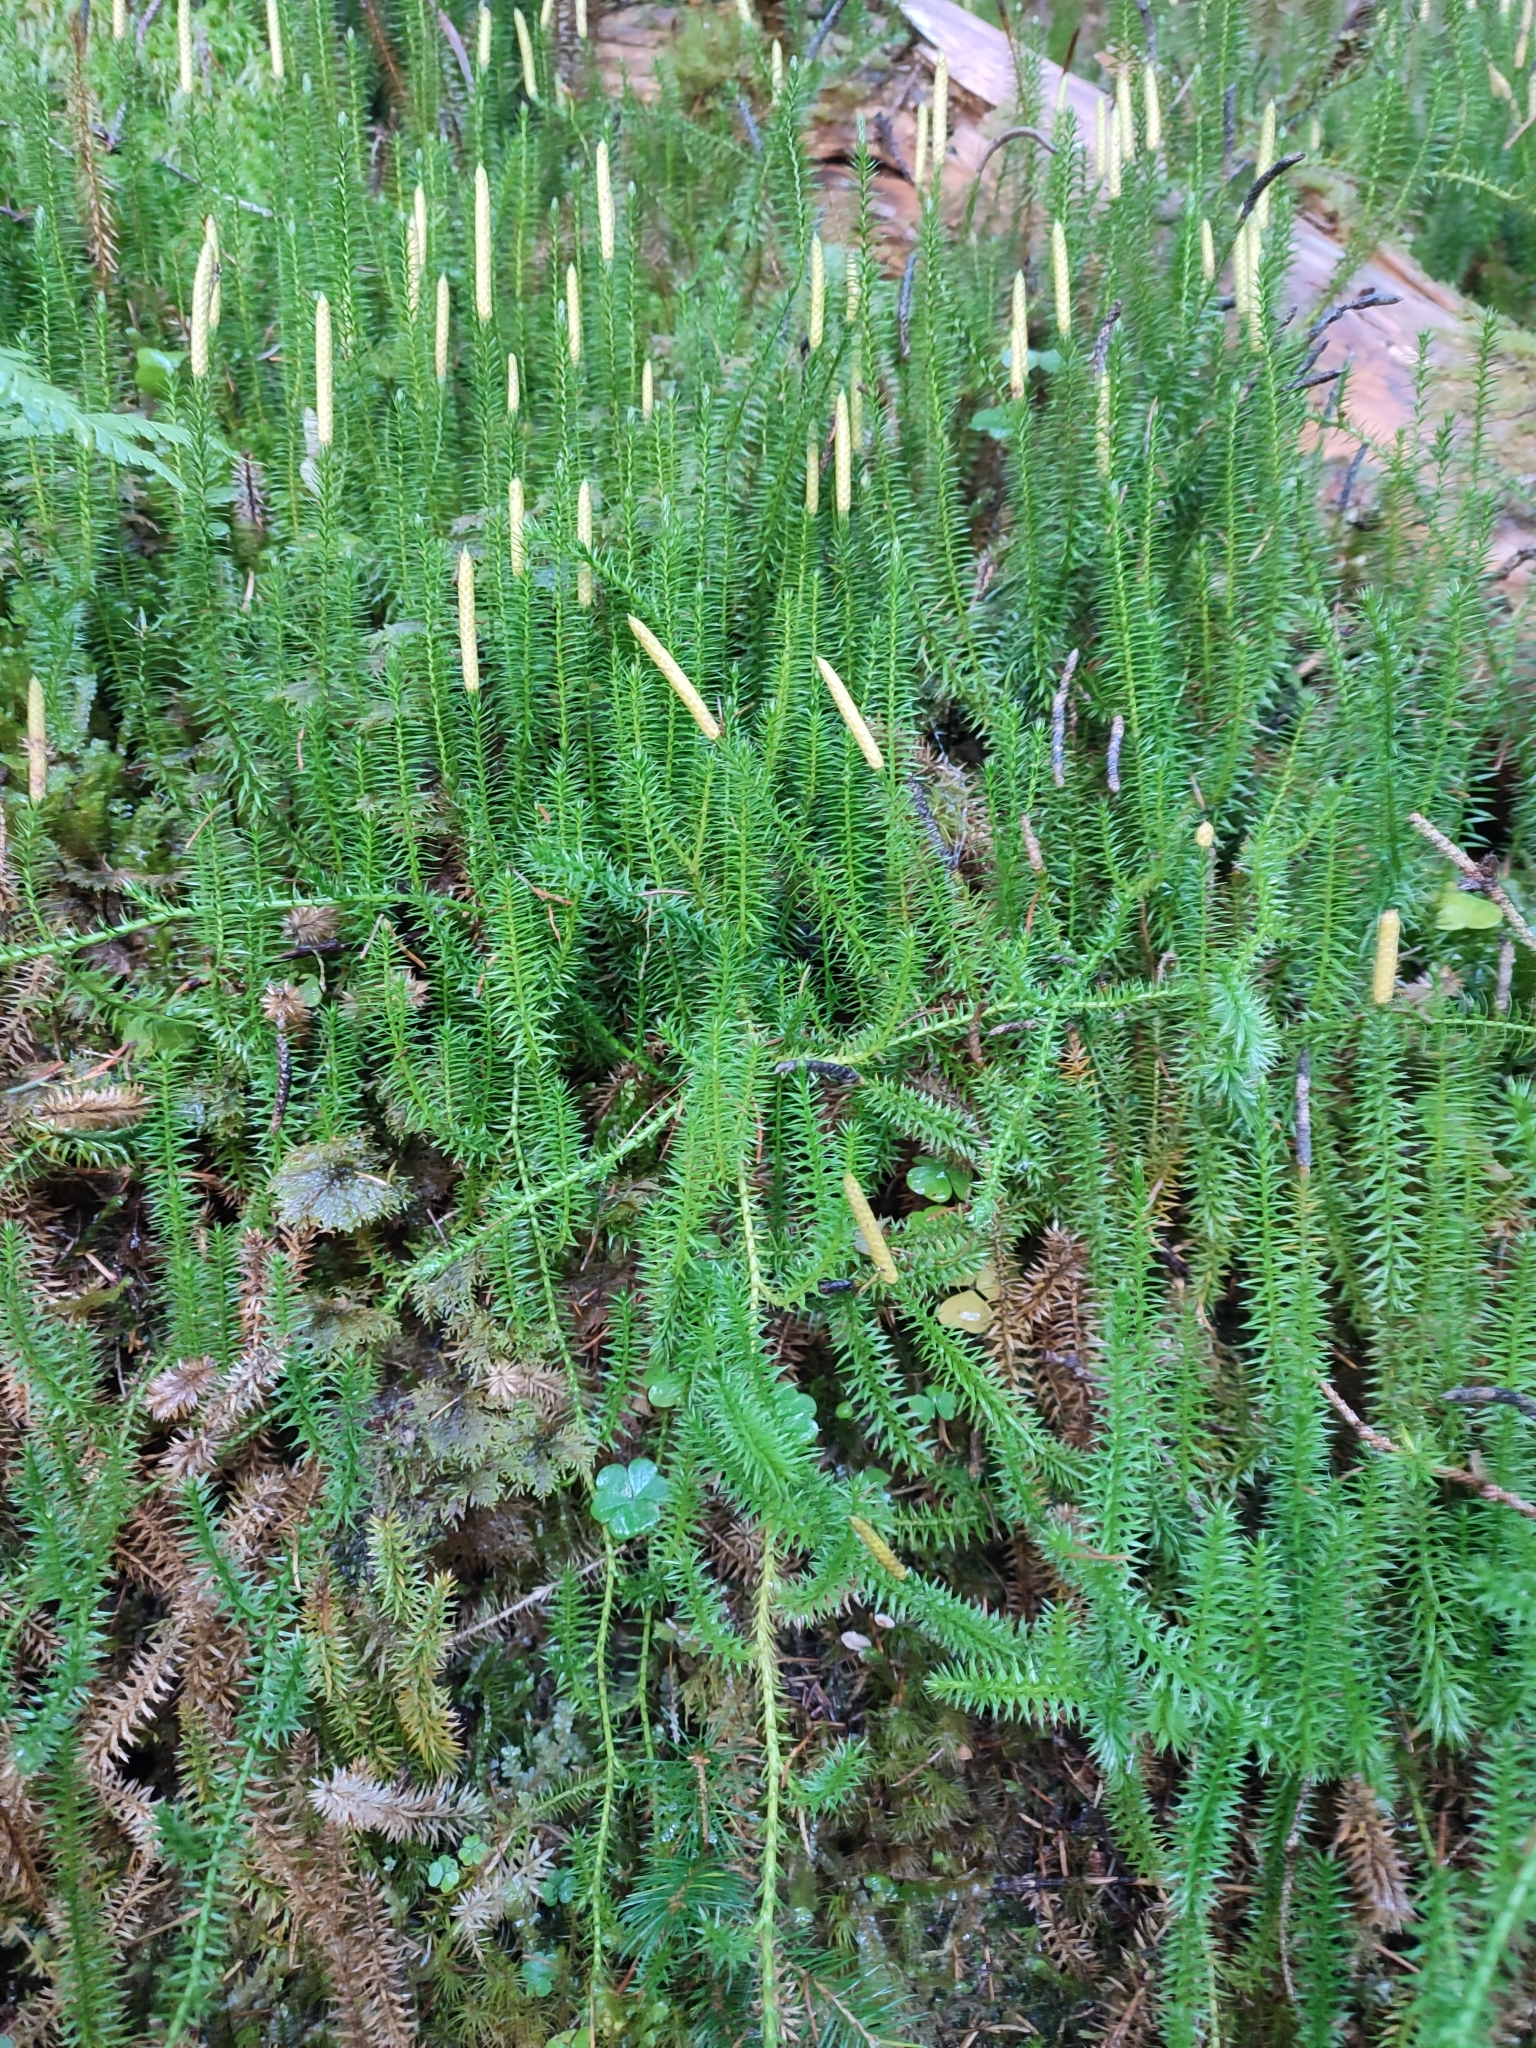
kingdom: Plantae
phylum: Tracheophyta
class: Lycopodiopsida
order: Lycopodiales
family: Lycopodiaceae
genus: Spinulum
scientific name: Spinulum annotinum
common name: Interrupted club-moss
